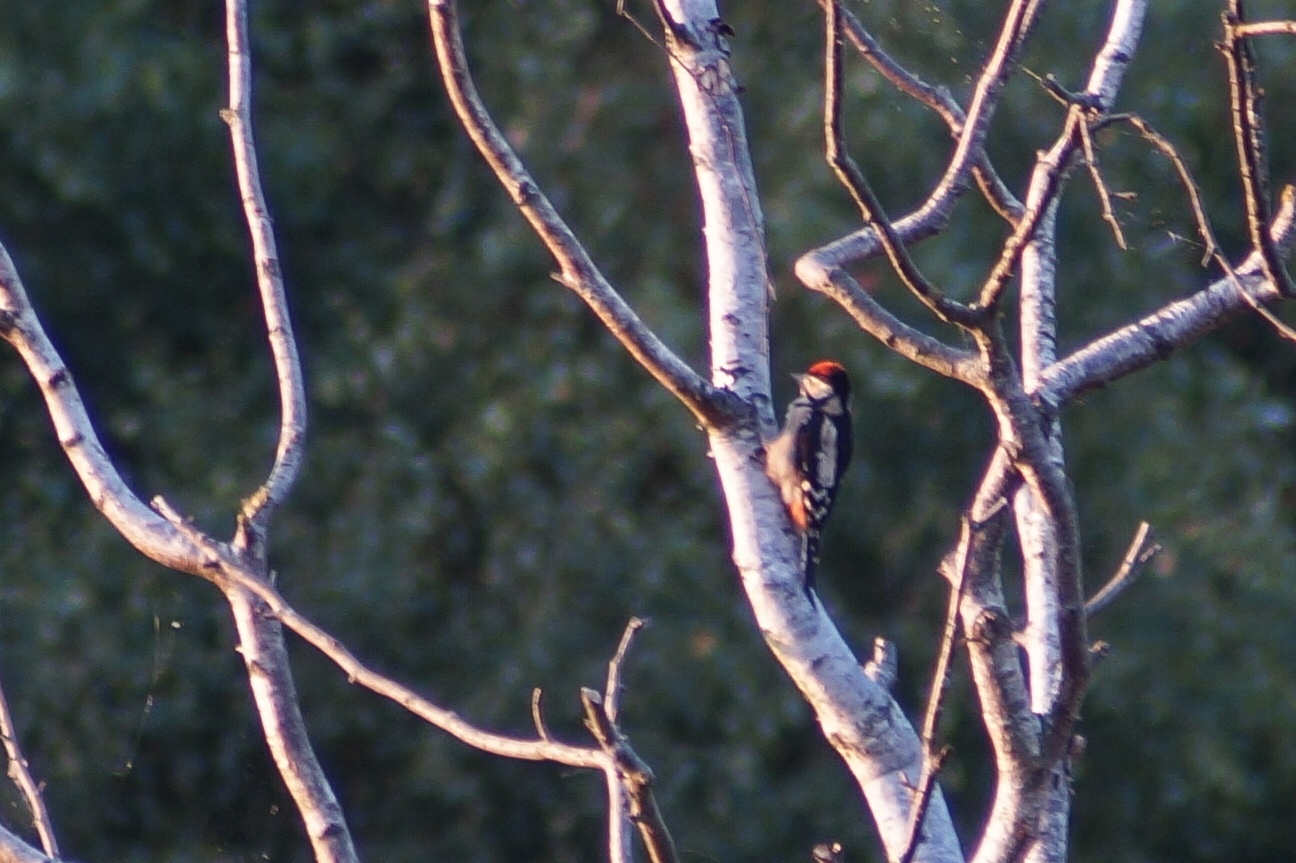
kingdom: Animalia
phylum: Chordata
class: Aves
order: Piciformes
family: Picidae
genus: Dendrocopos
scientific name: Dendrocopos major
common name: Great spotted woodpecker
